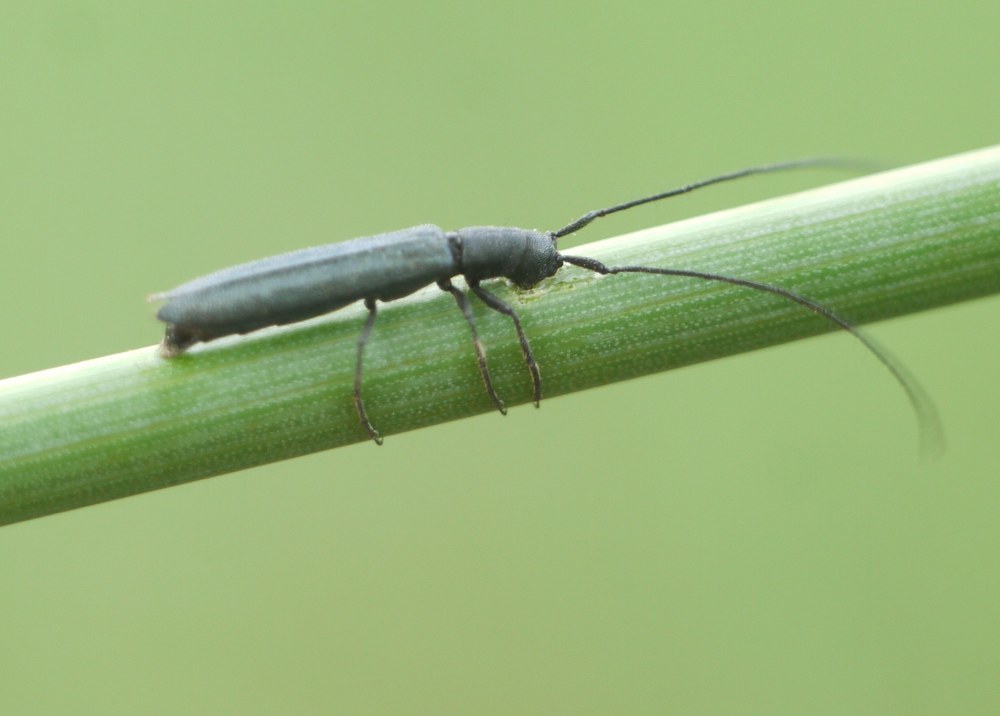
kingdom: Animalia
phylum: Arthropoda
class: Insecta
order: Coleoptera
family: Cerambycidae
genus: Theophilea
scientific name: Theophilea subcylindricollis
